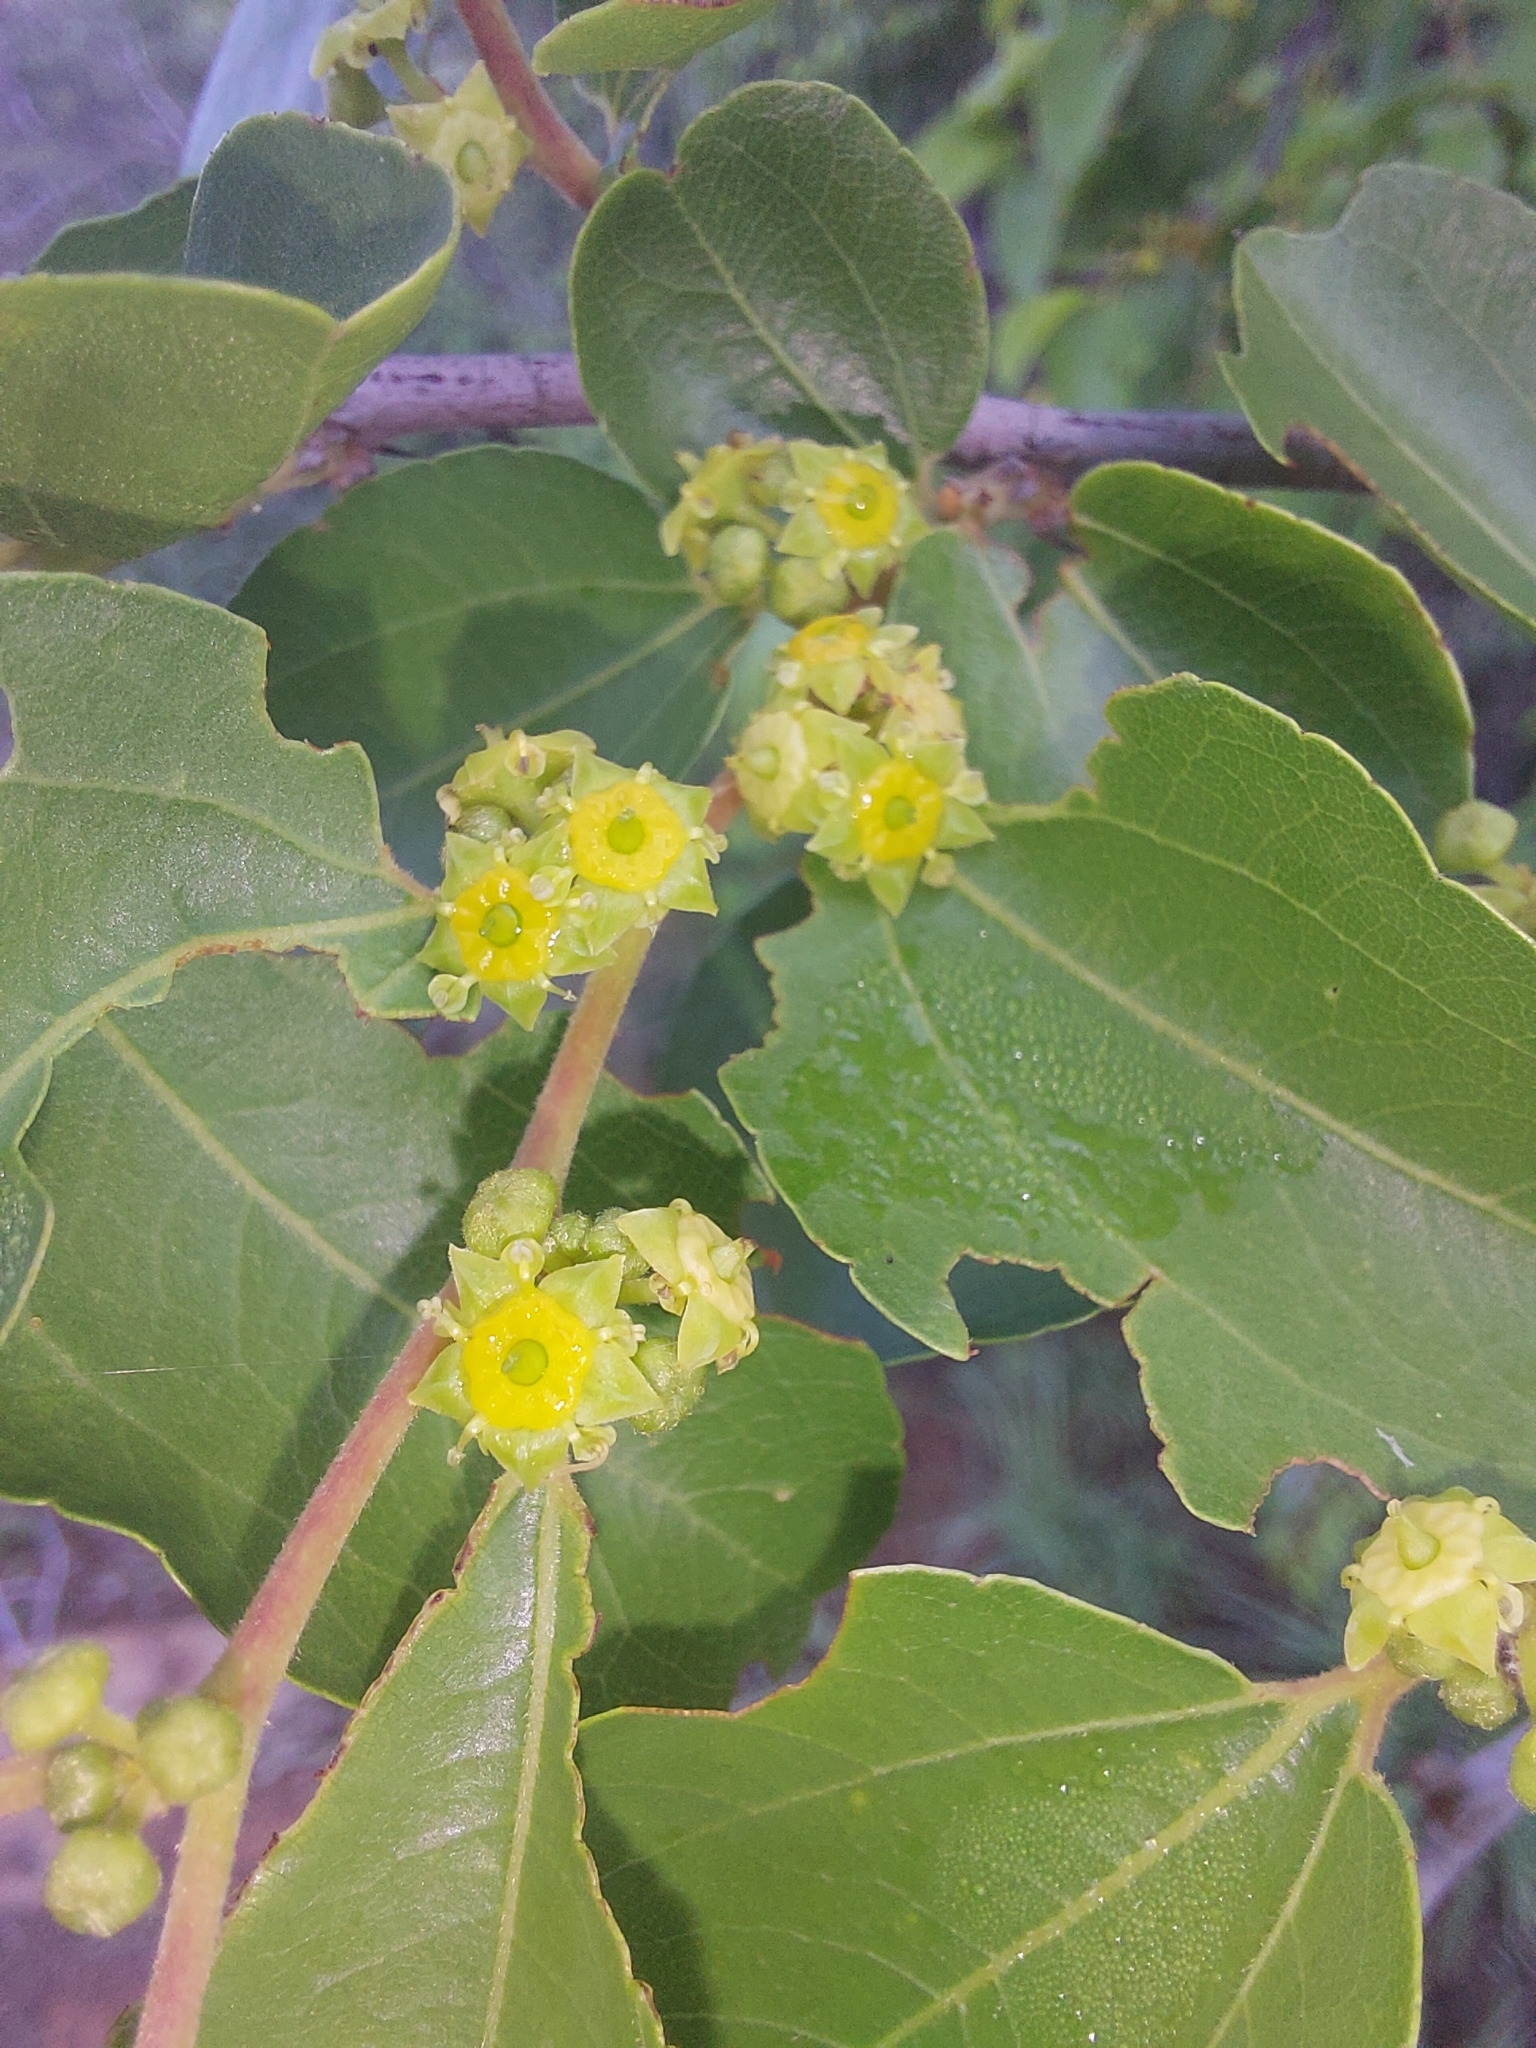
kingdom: Plantae
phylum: Tracheophyta
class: Magnoliopsida
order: Rosales
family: Rhamnaceae
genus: Ziziphus
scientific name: Ziziphus mucronata
